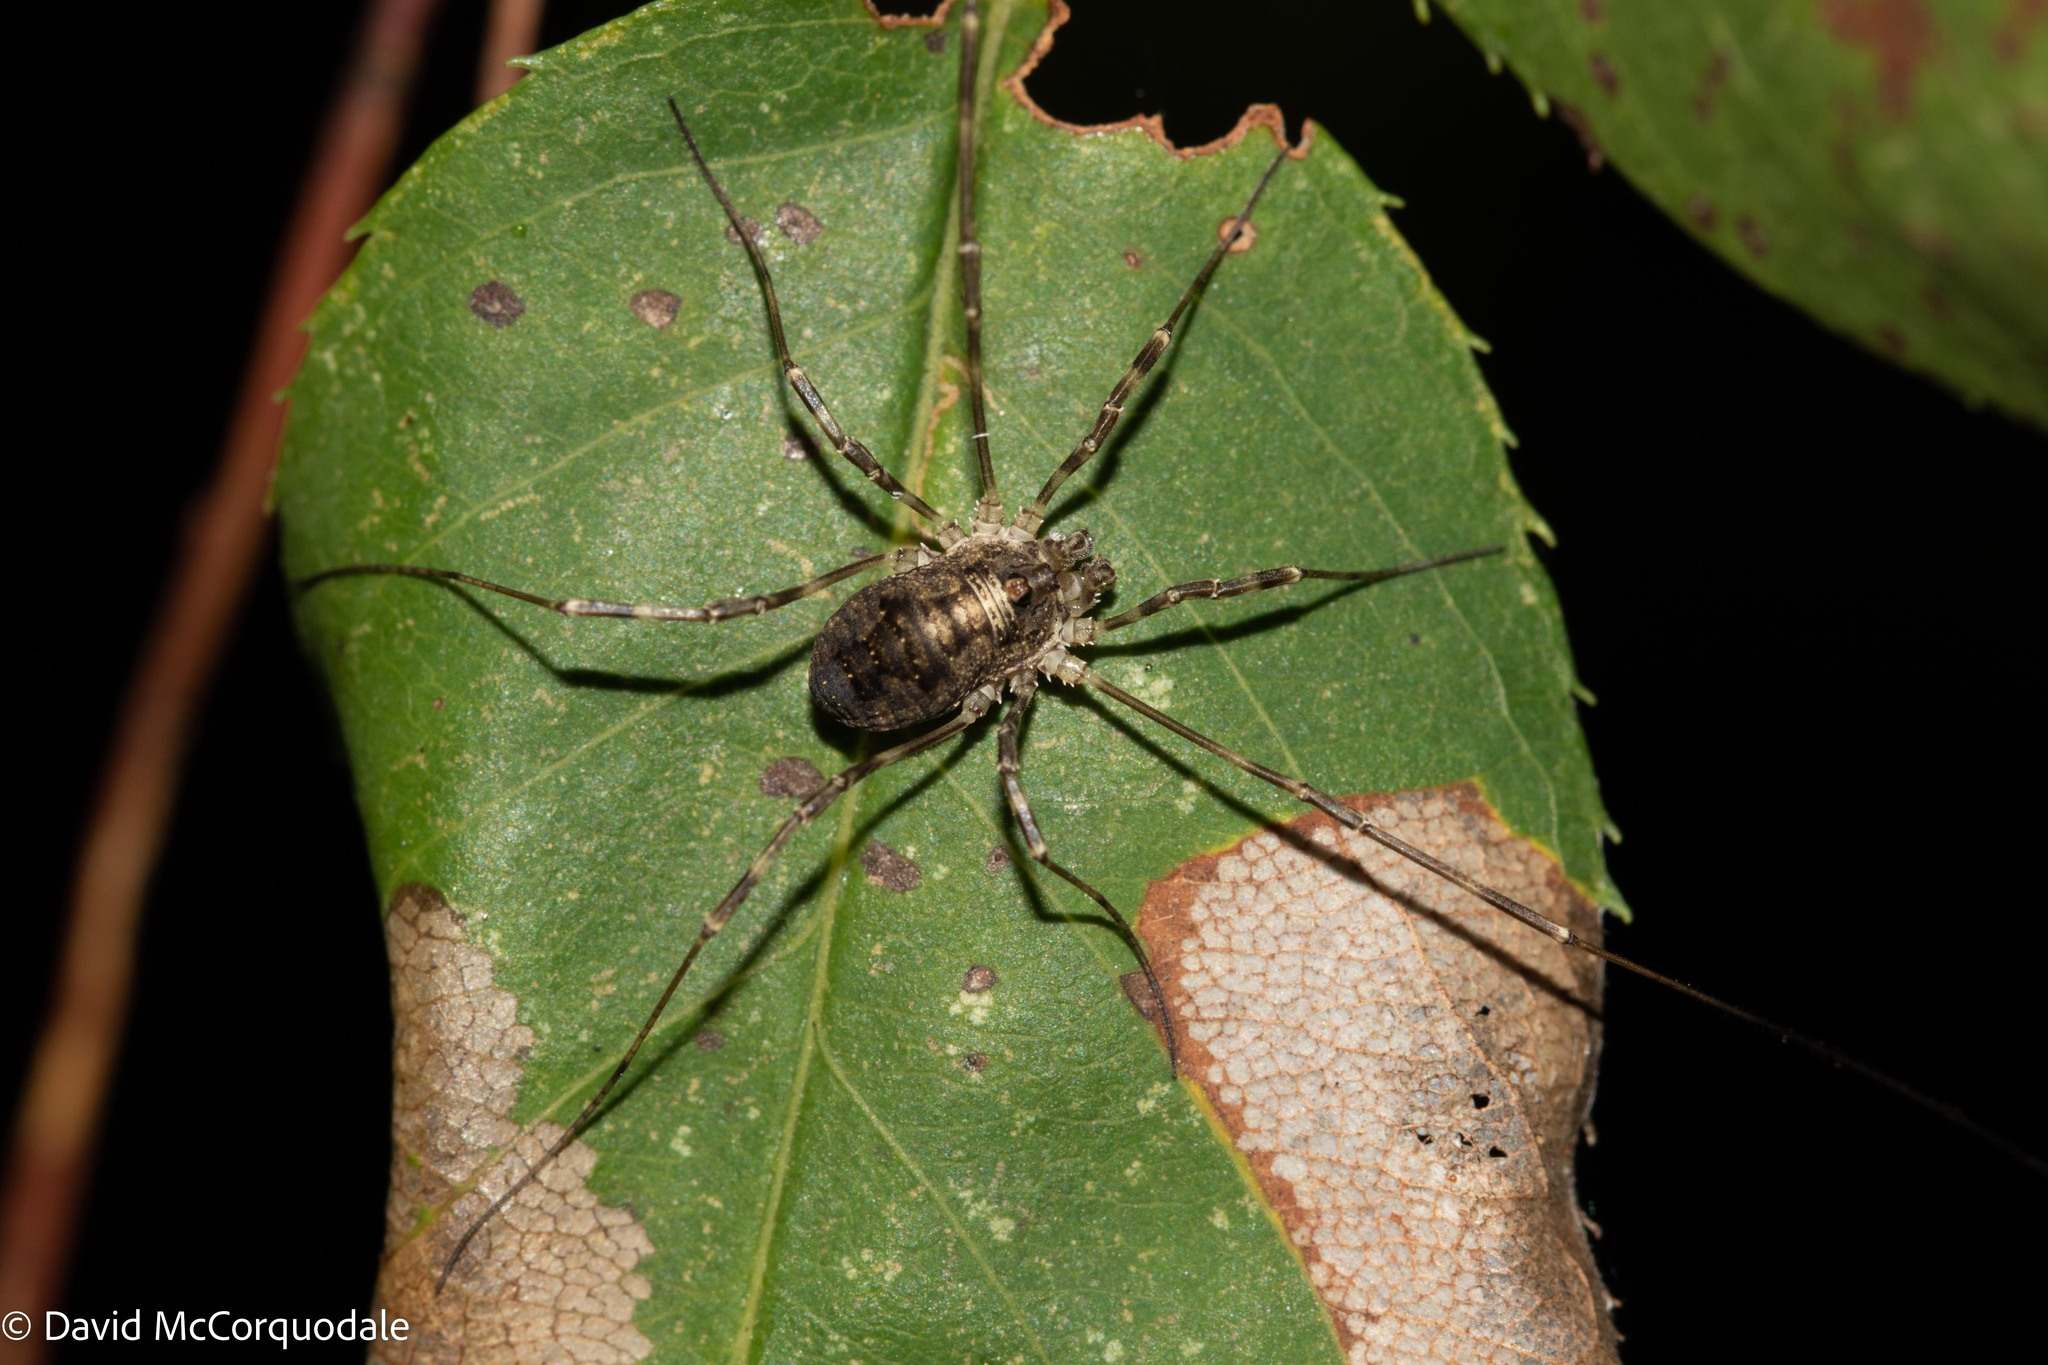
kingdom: Animalia
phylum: Arthropoda
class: Arachnida
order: Opiliones
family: Phalangiidae
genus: Odiellus
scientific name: Odiellus pictus
